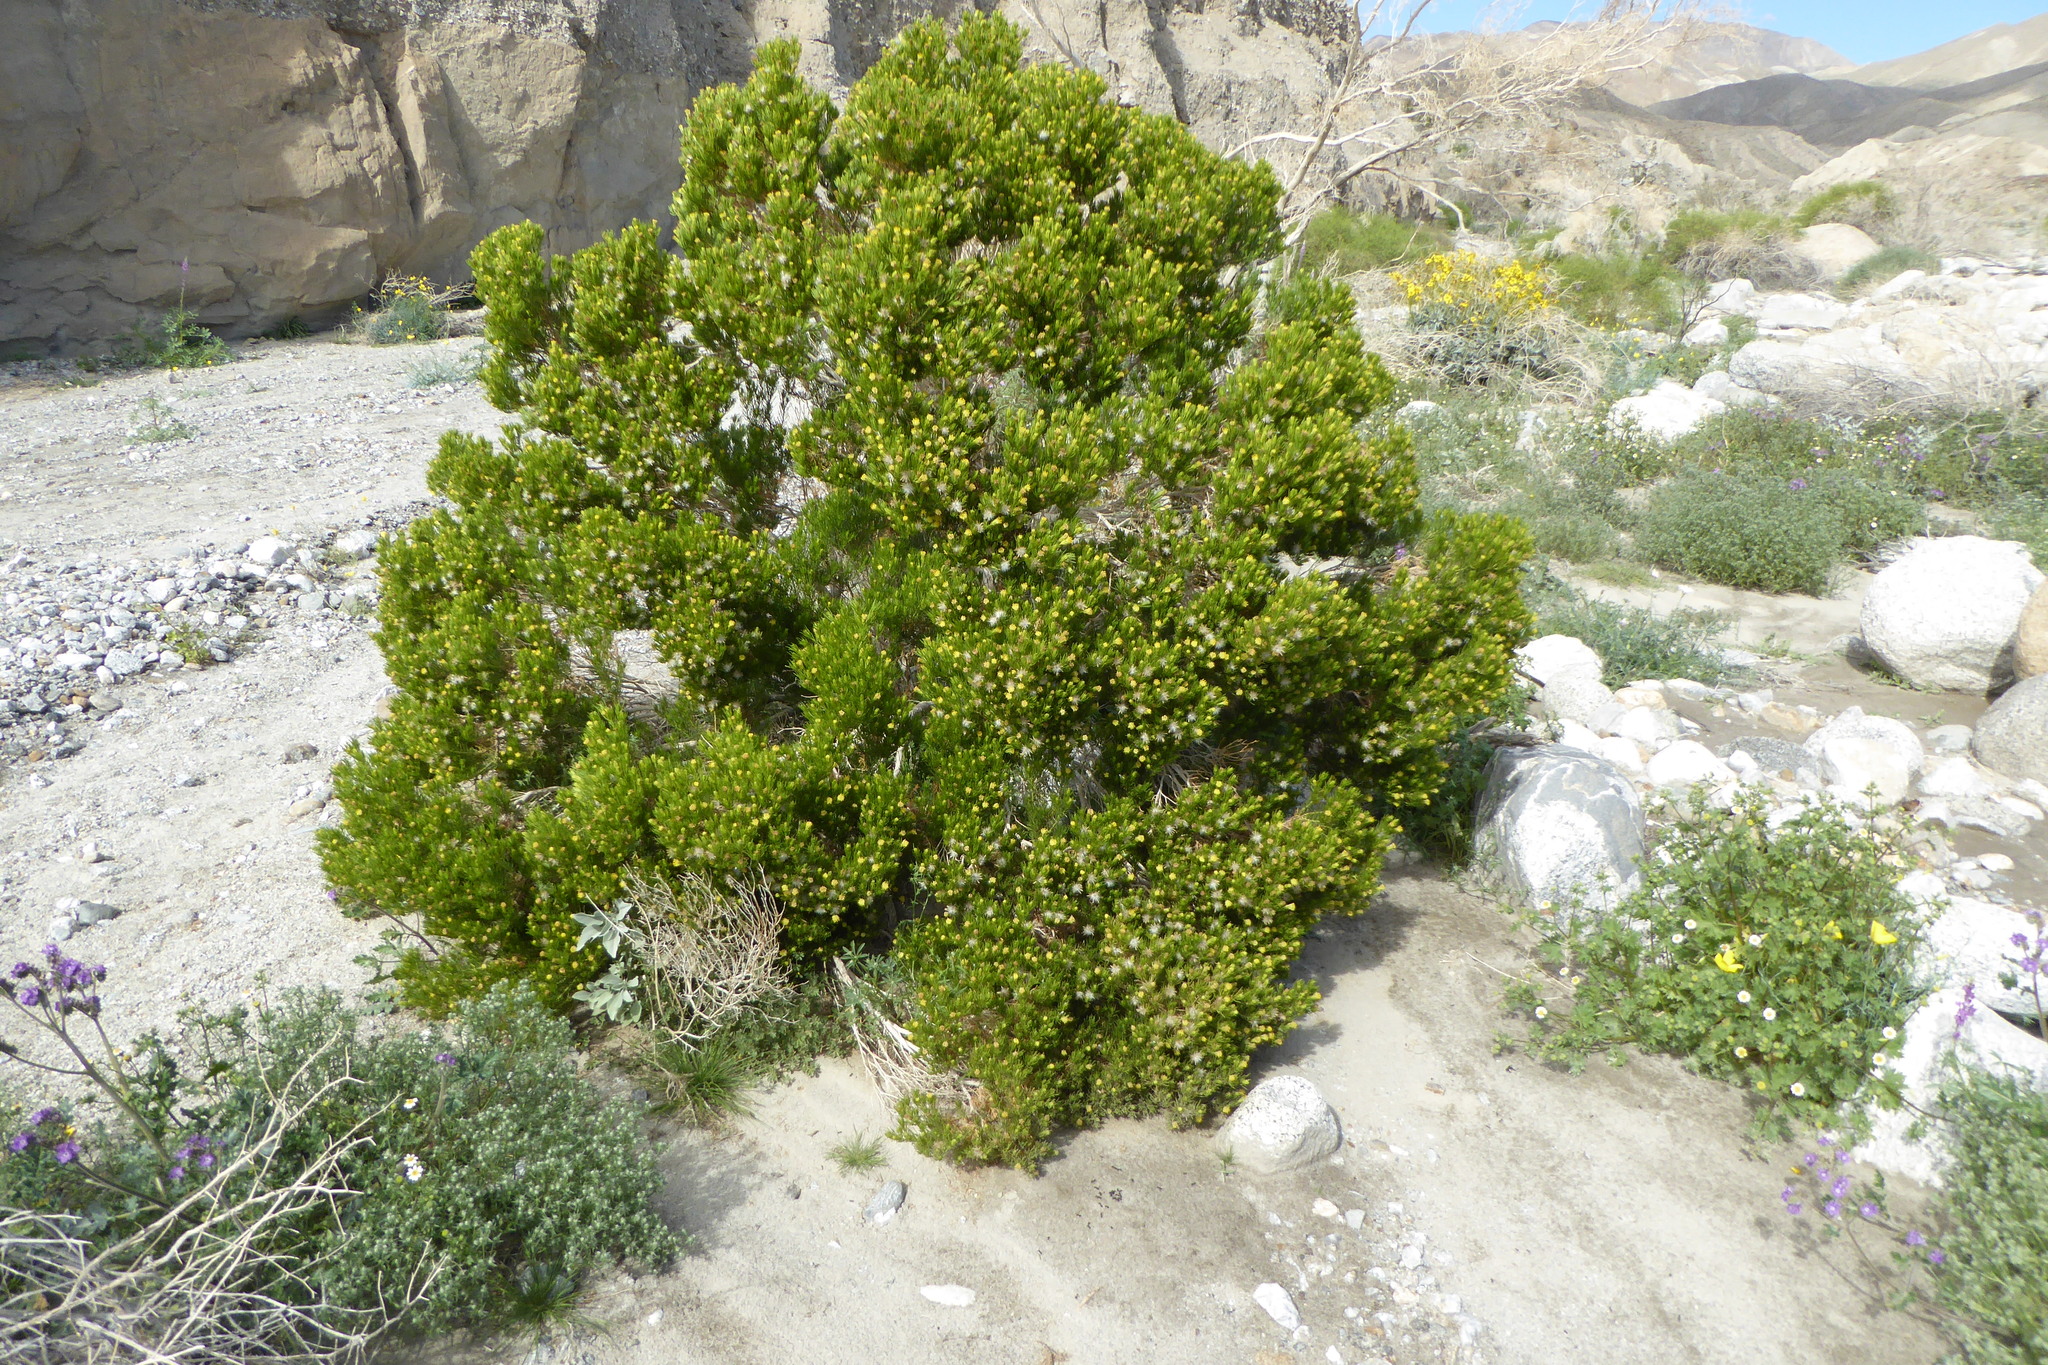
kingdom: Plantae
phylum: Tracheophyta
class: Magnoliopsida
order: Asterales
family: Asteraceae
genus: Peucephyllum
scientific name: Peucephyllum schottii
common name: Pygmy-cedar
